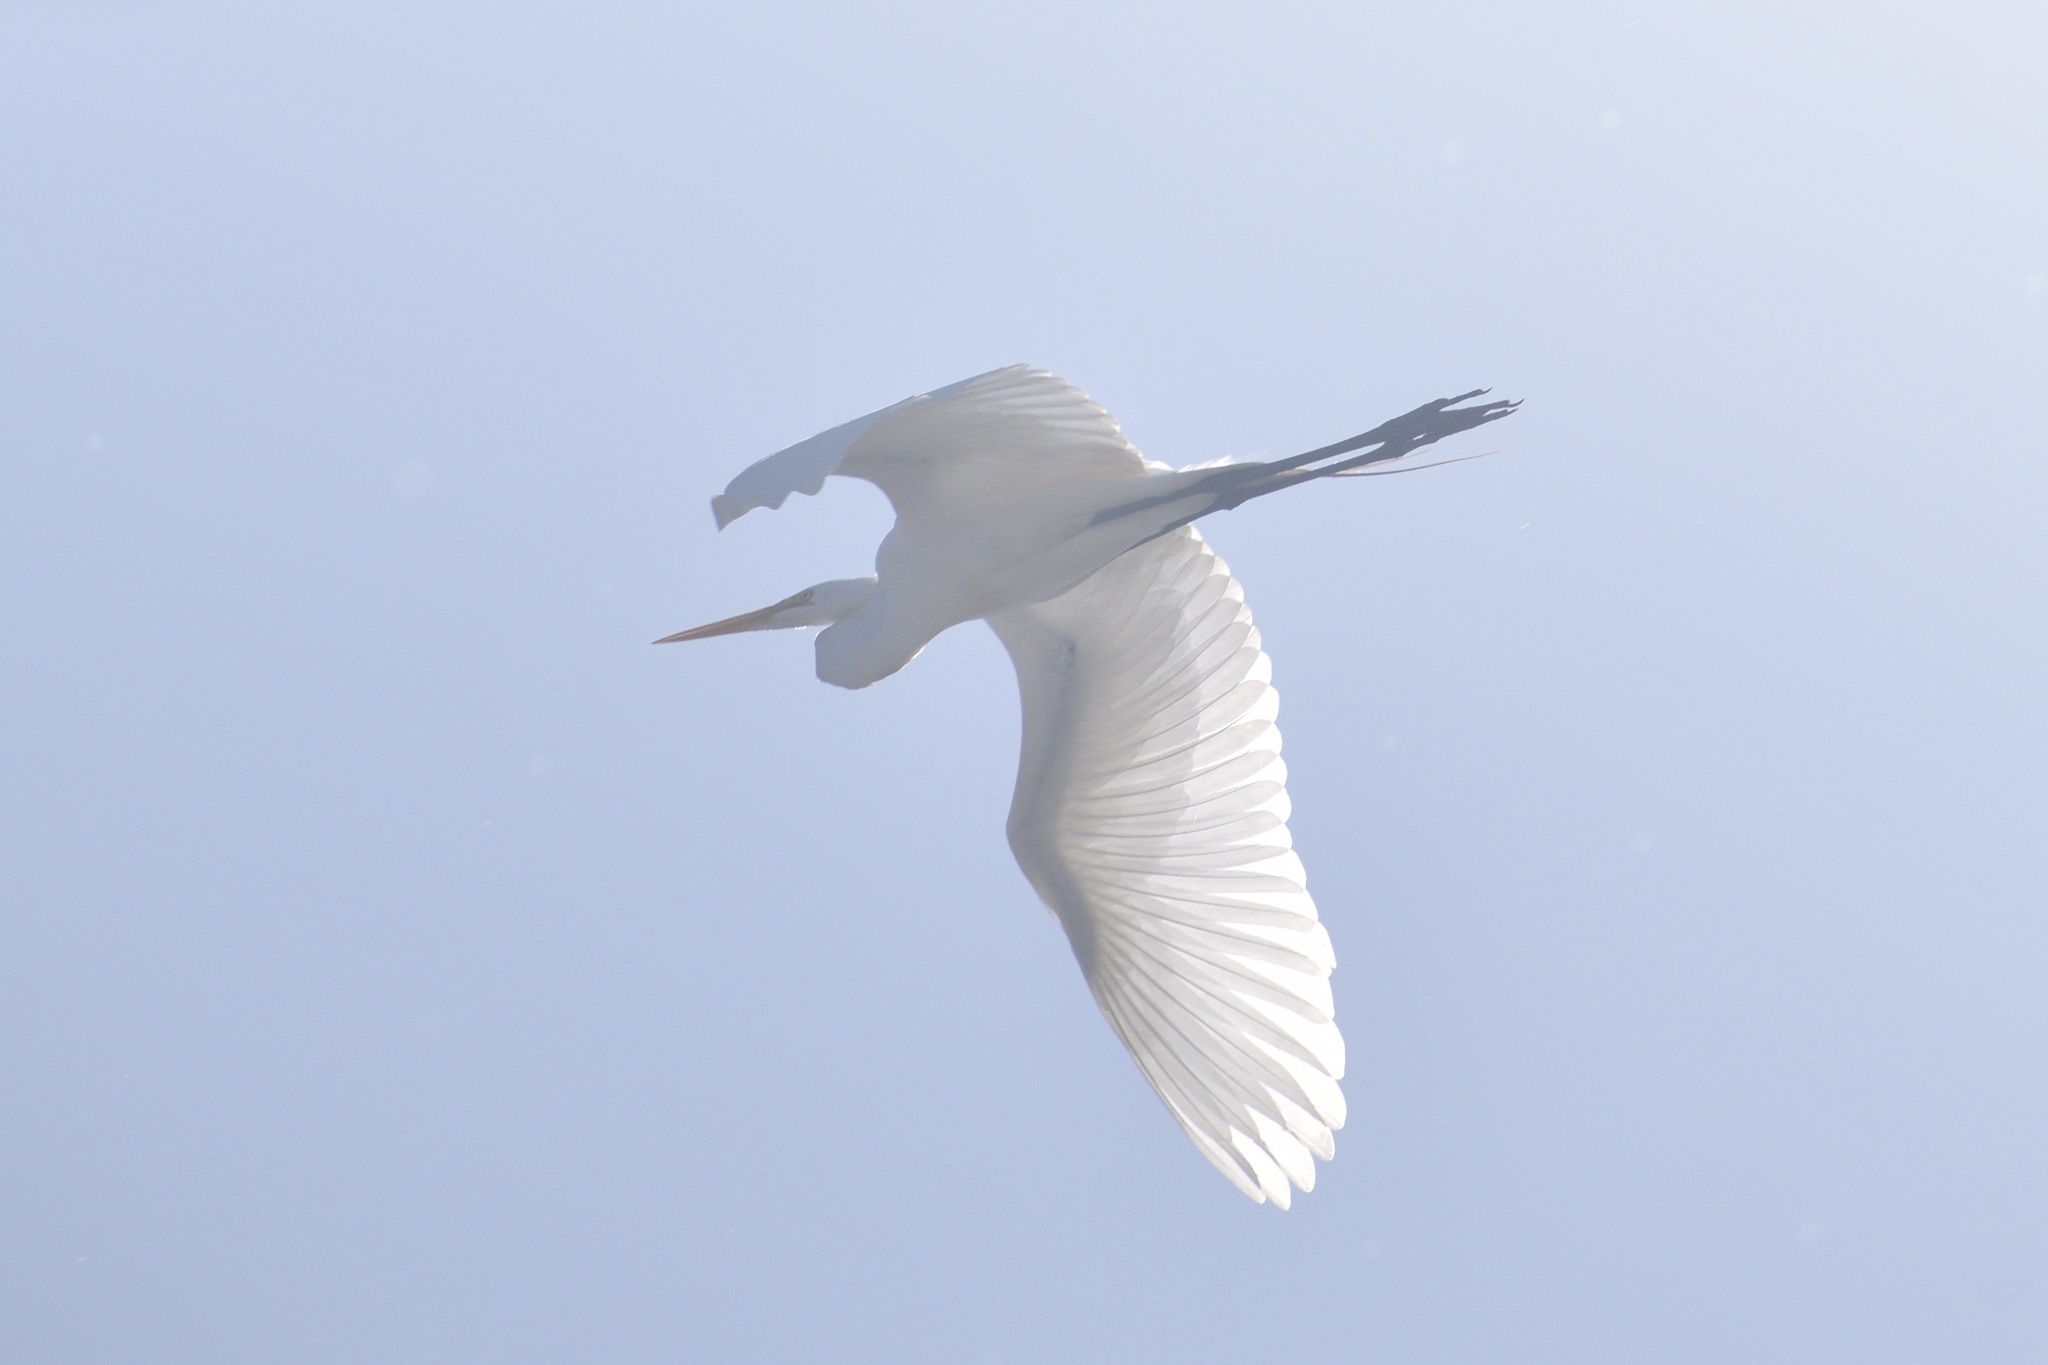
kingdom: Animalia
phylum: Chordata
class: Aves
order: Pelecaniformes
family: Ardeidae
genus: Ardea
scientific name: Ardea alba
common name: Great egret
